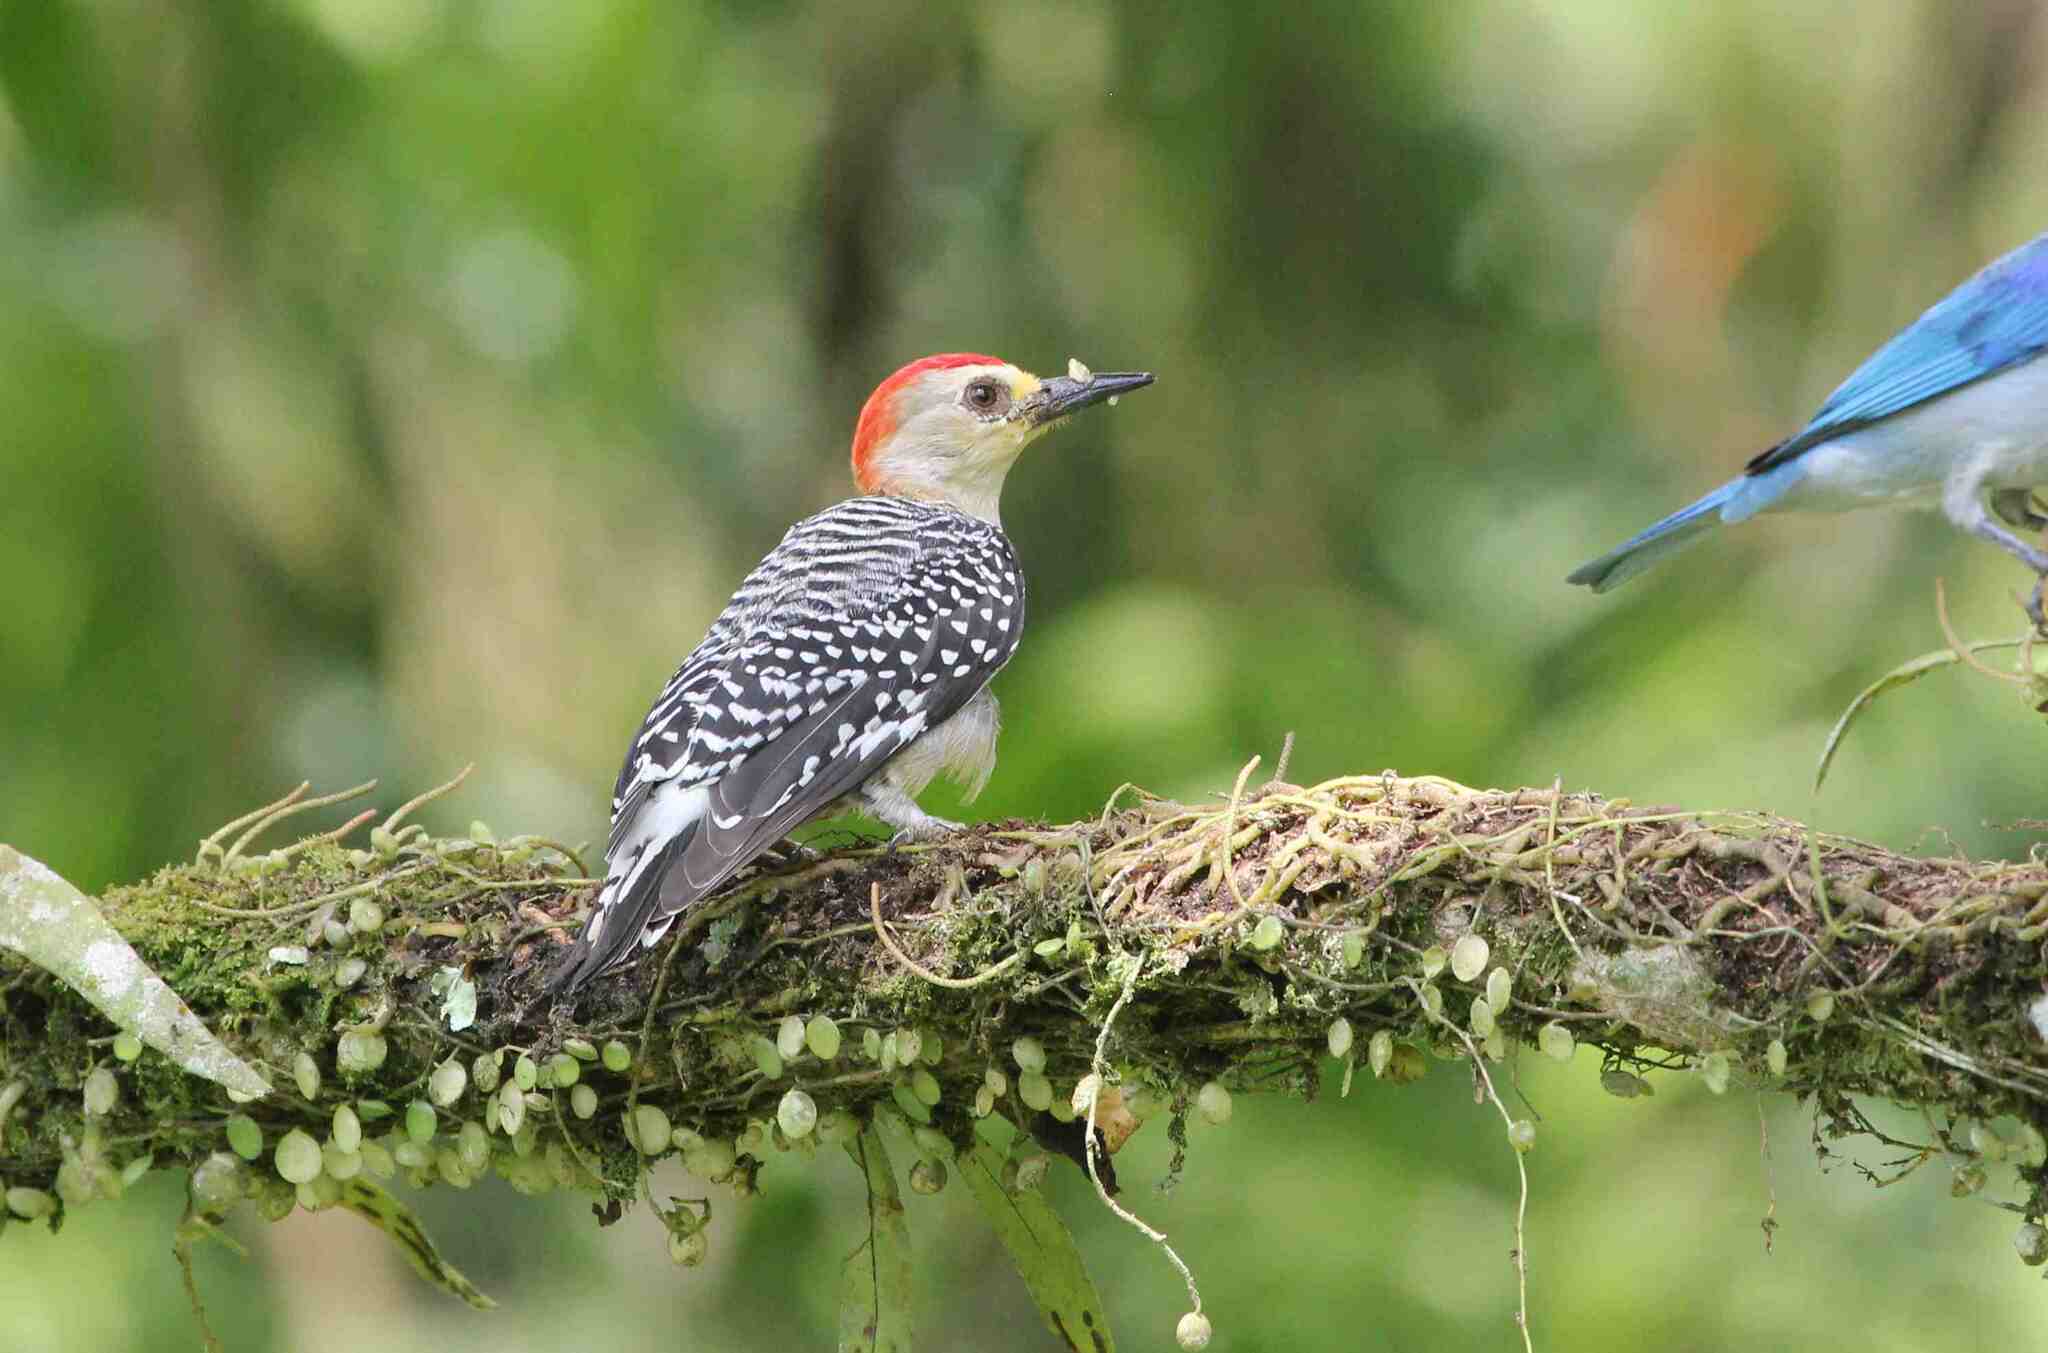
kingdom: Animalia
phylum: Chordata
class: Aves
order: Piciformes
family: Picidae
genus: Melanerpes
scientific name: Melanerpes rubricapillus
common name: Red-crowned woodpecker
